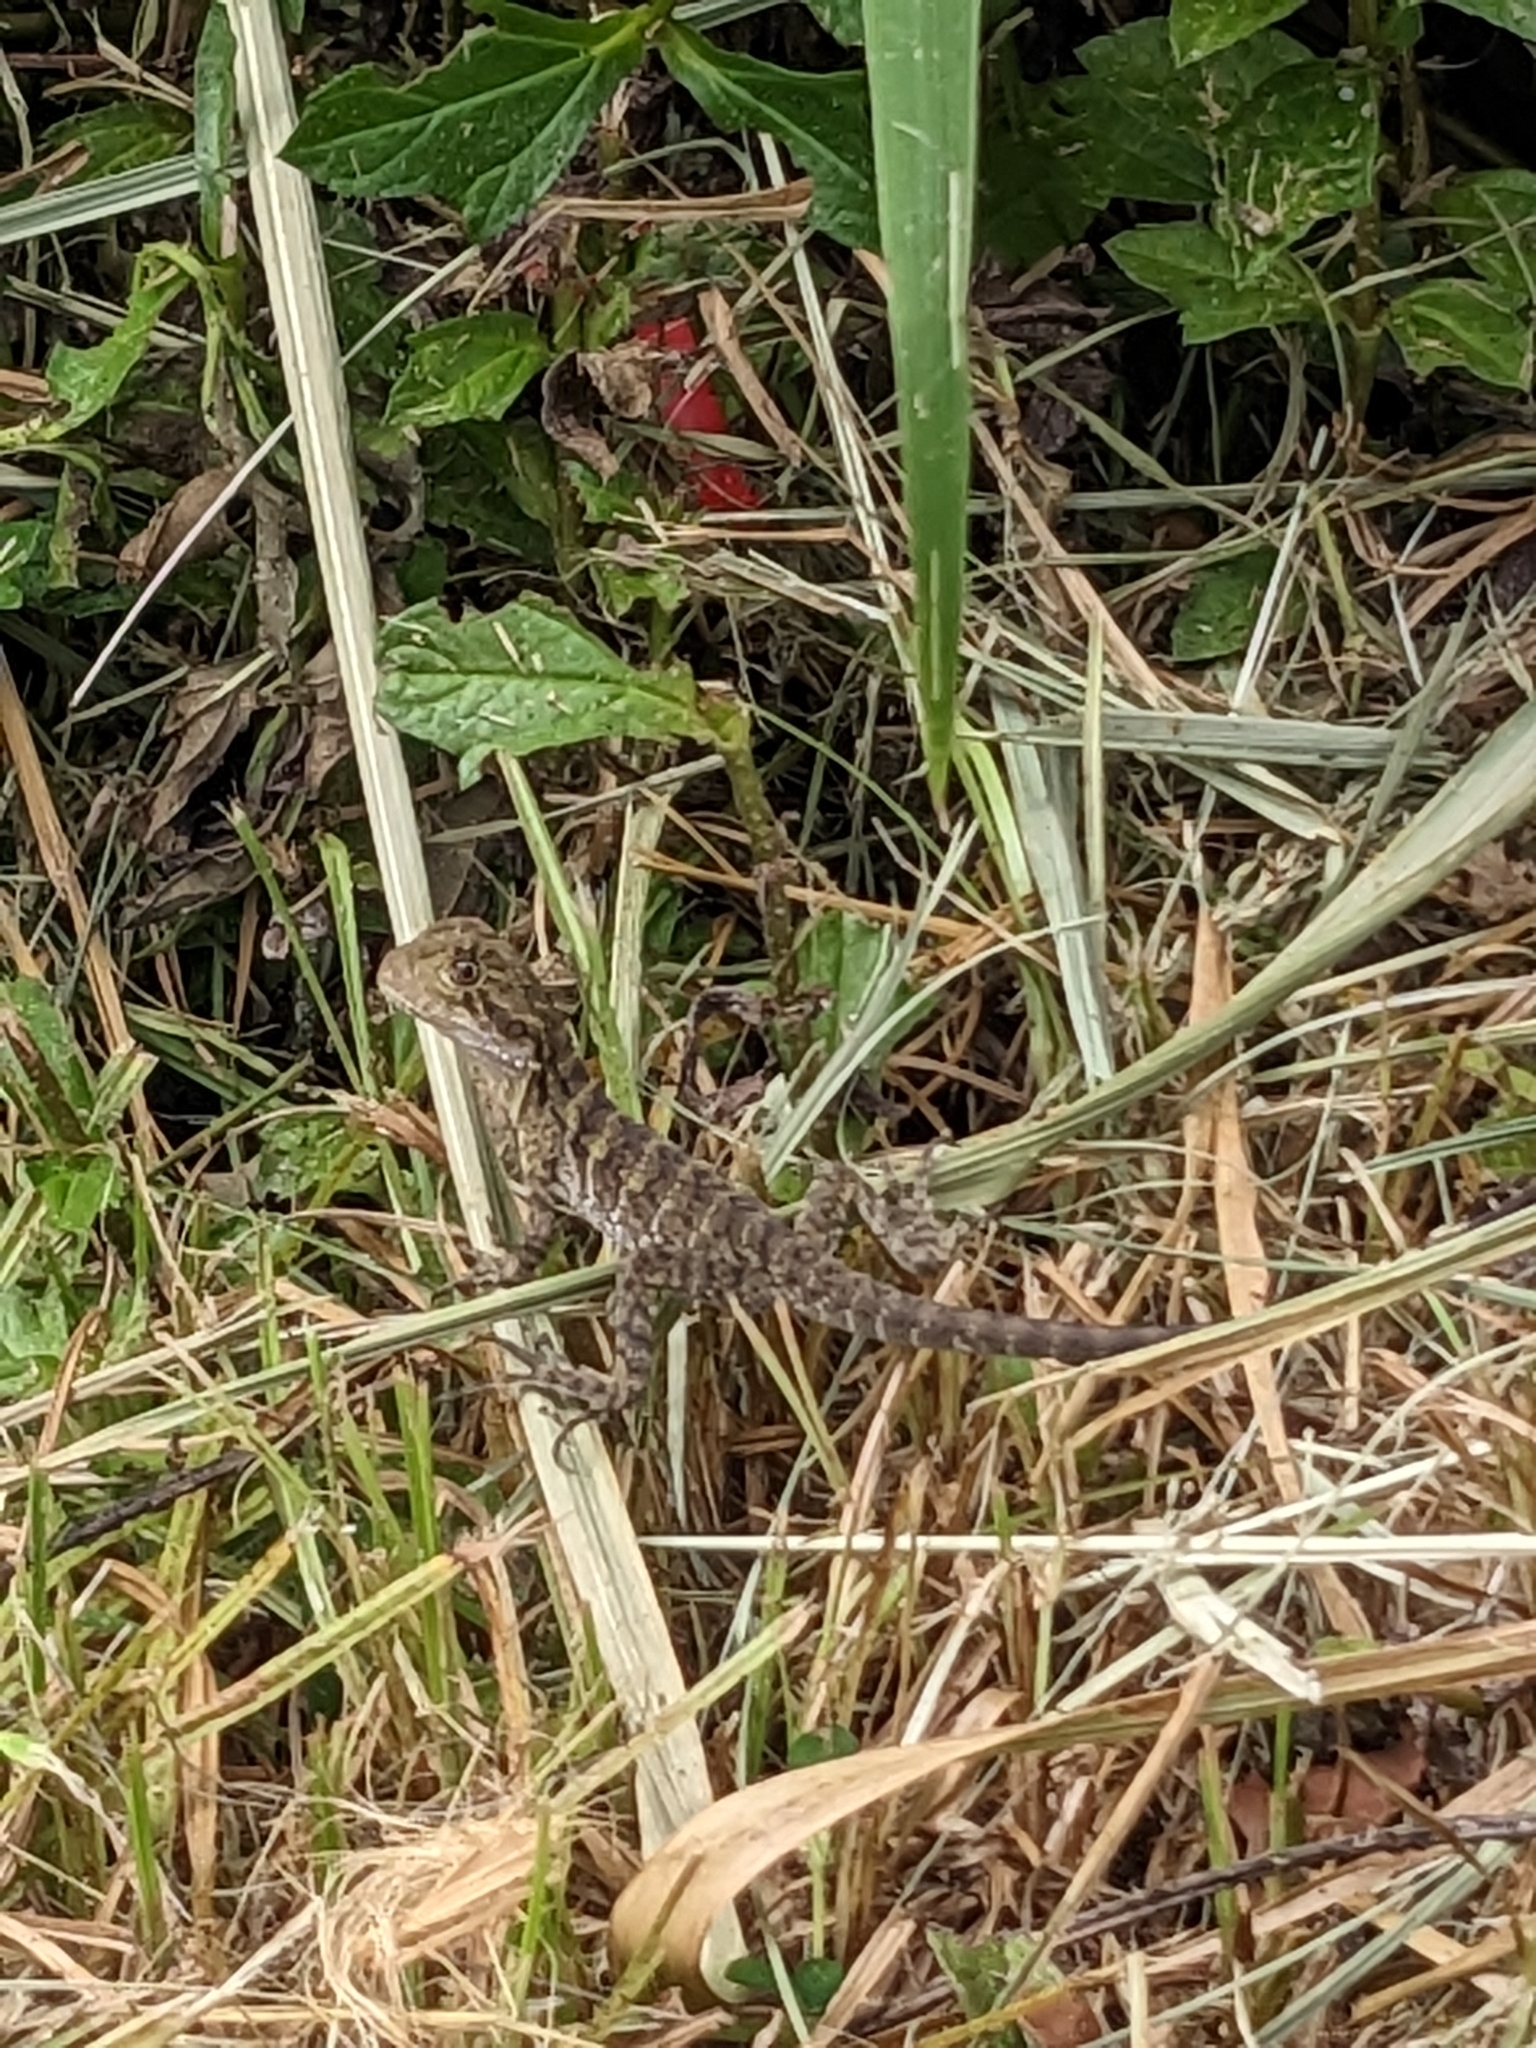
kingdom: Animalia
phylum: Chordata
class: Squamata
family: Agamidae
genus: Intellagama
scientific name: Intellagama lesueurii
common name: Eastern water dragon
